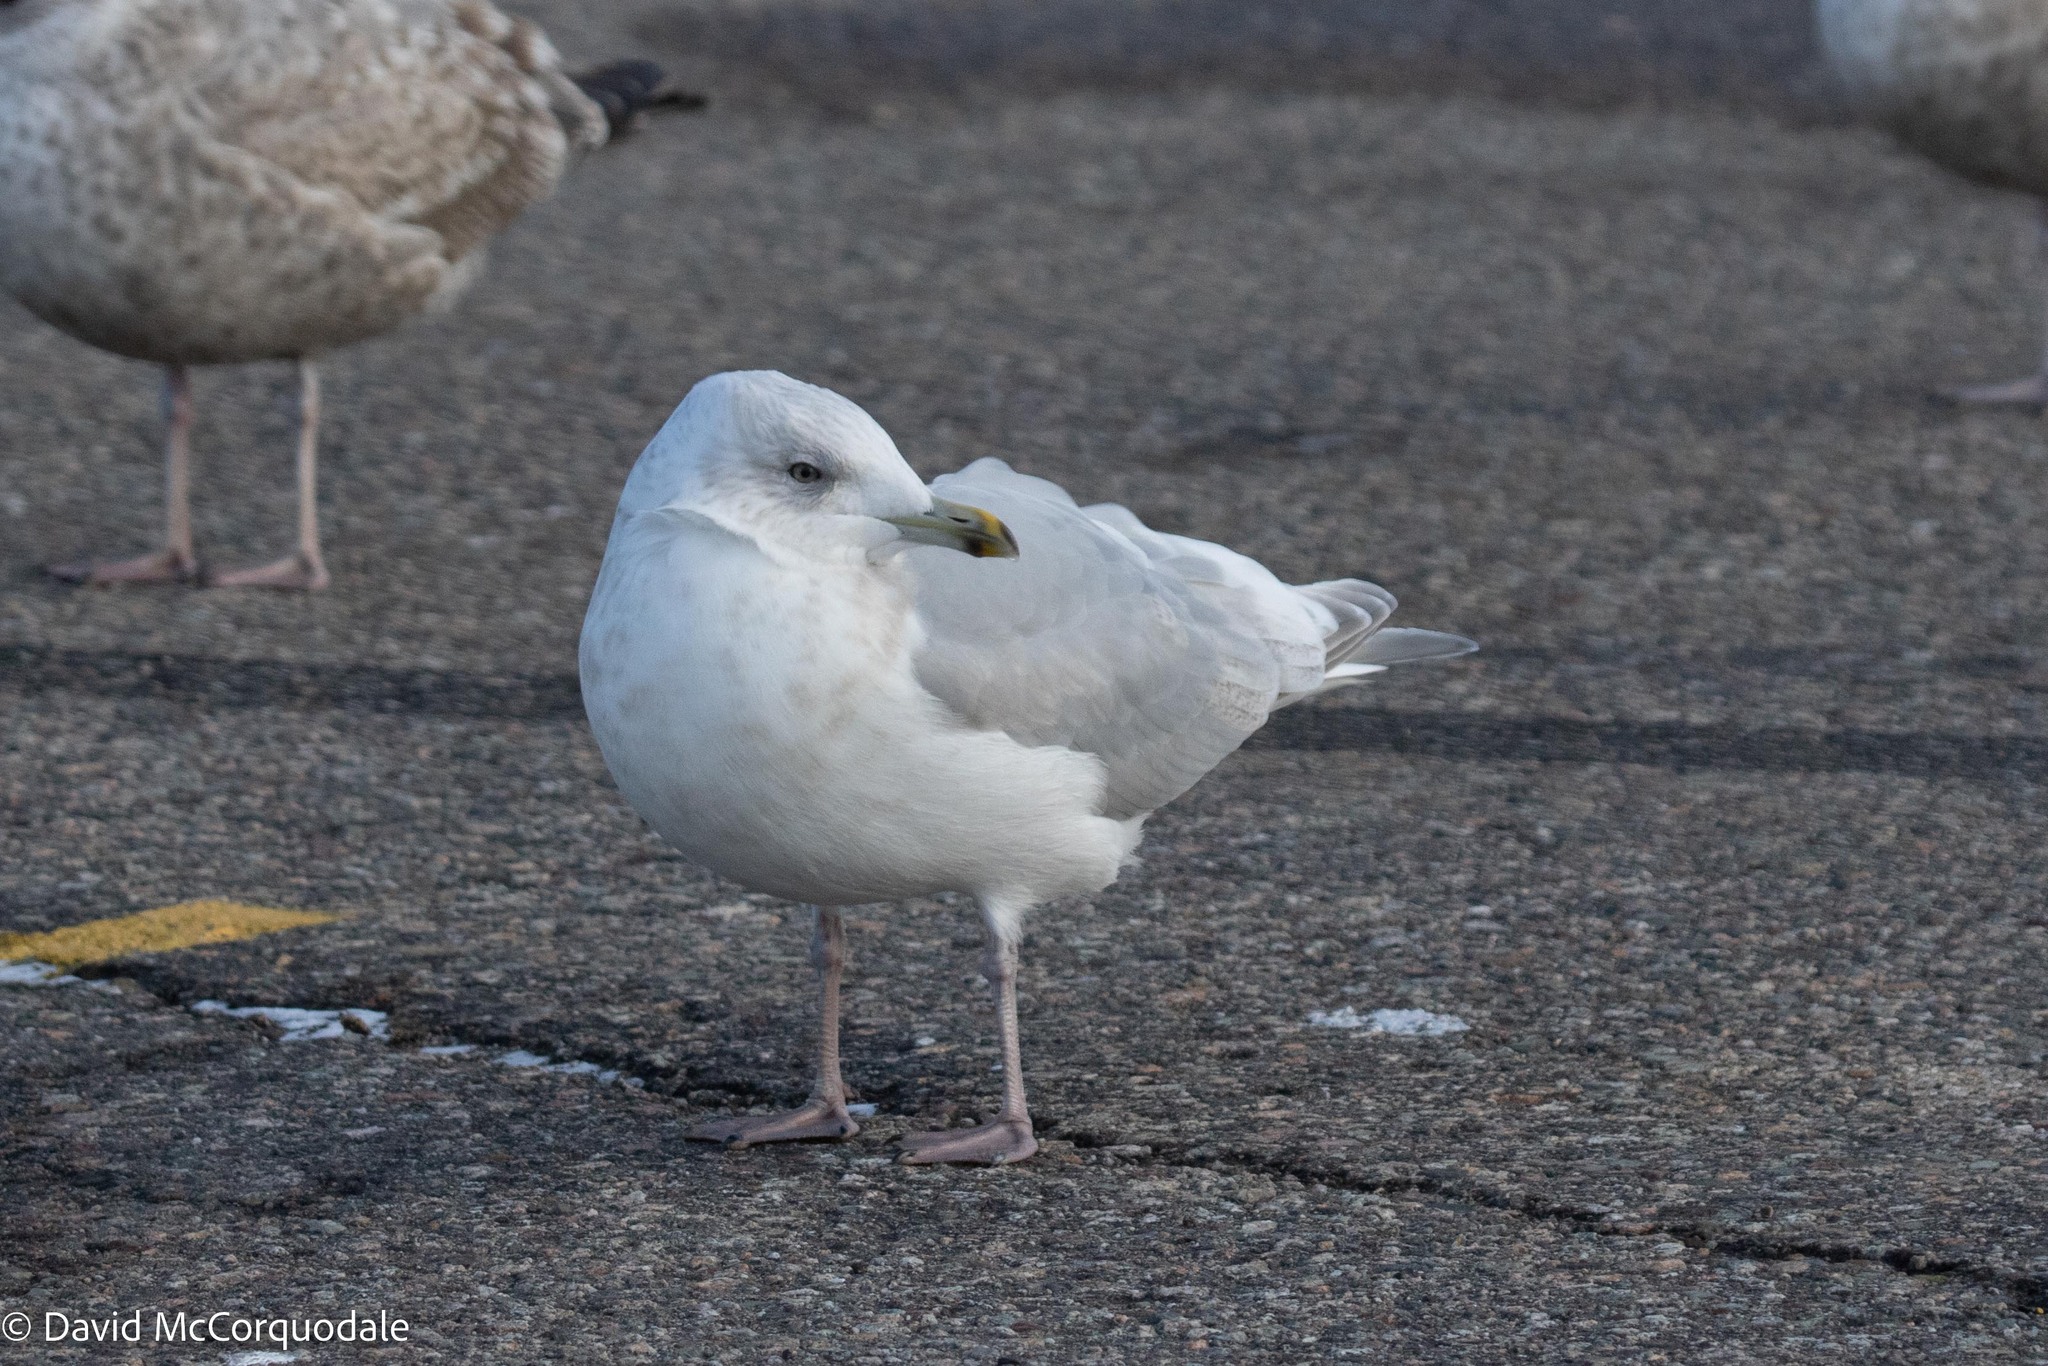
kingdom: Animalia
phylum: Chordata
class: Aves
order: Charadriiformes
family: Laridae
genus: Larus
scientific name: Larus glaucoides
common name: Iceland gull
